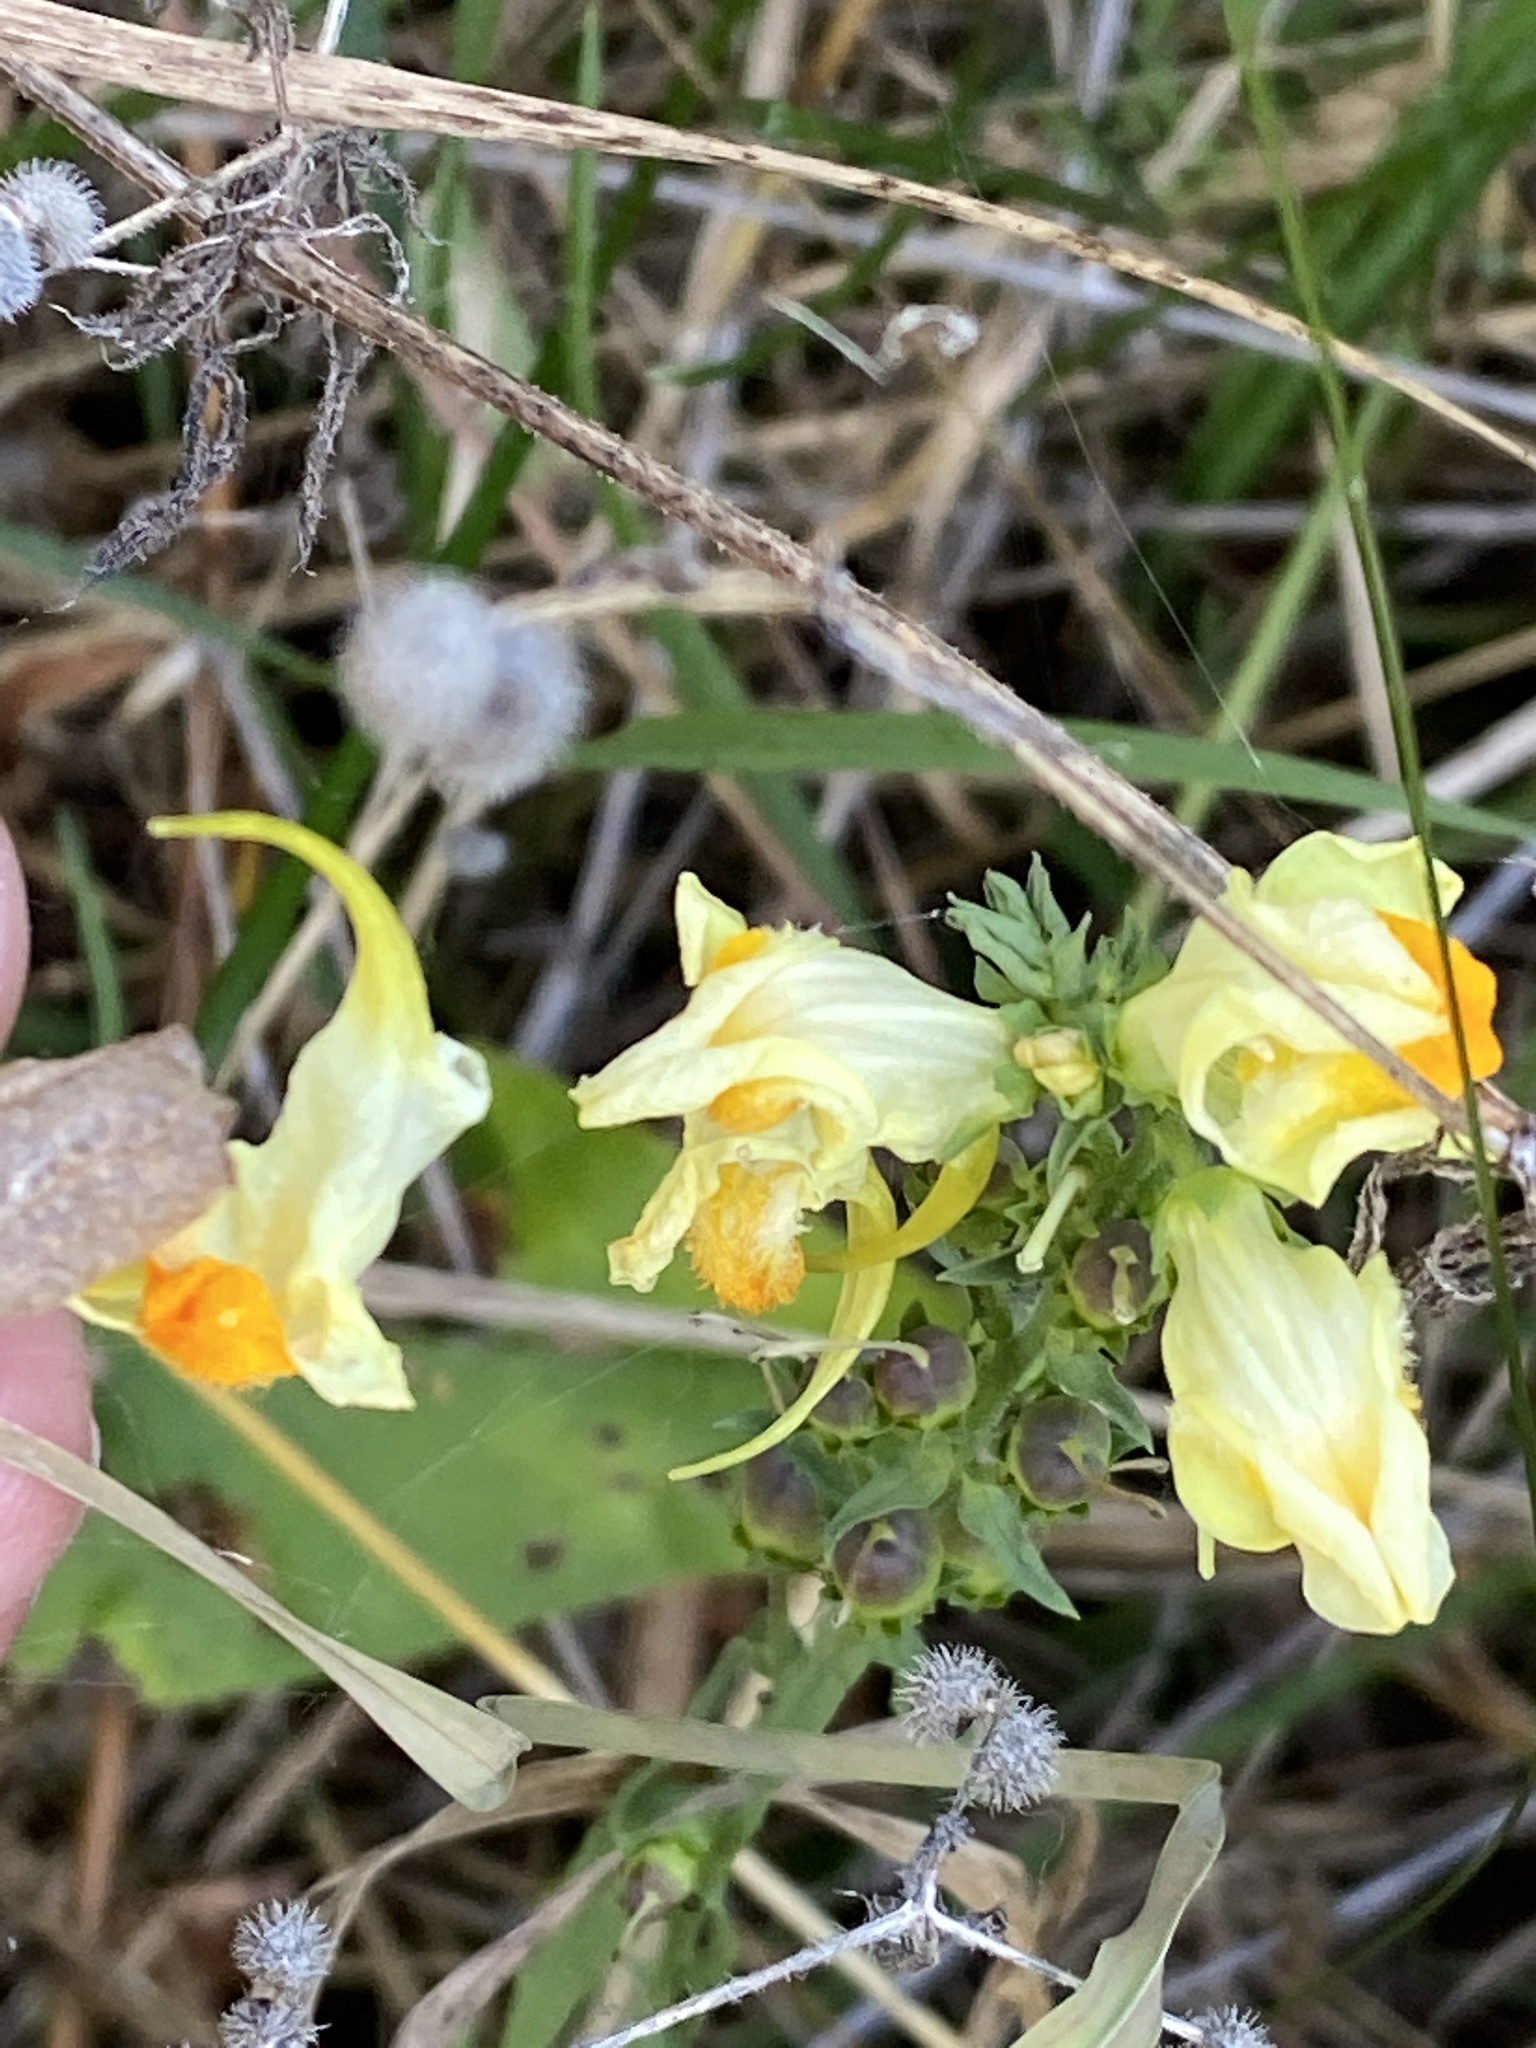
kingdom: Plantae
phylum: Tracheophyta
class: Magnoliopsida
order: Lamiales
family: Plantaginaceae
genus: Linaria
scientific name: Linaria vulgaris
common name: Butter and eggs
